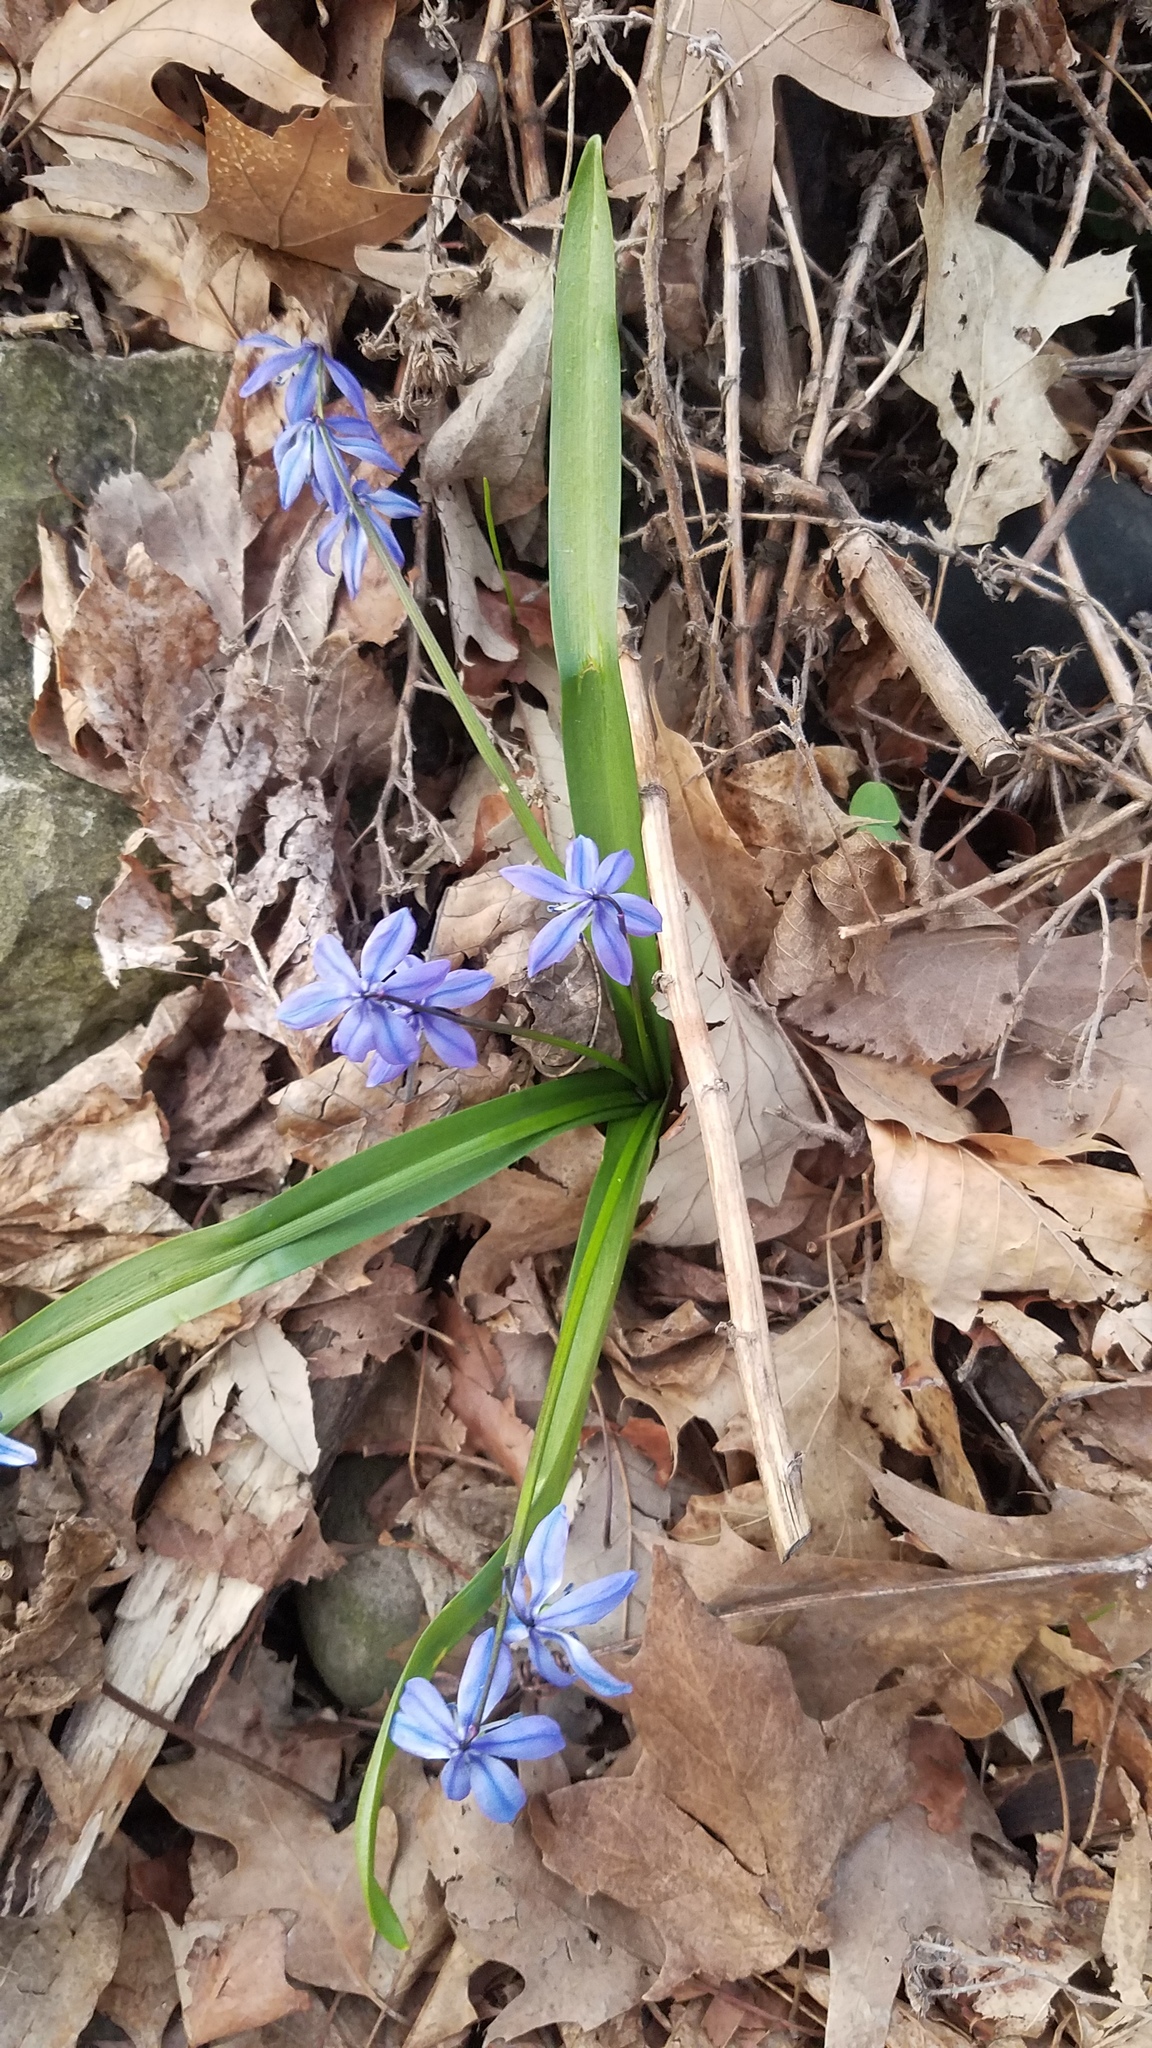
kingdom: Plantae
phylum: Tracheophyta
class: Liliopsida
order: Asparagales
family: Asparagaceae
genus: Scilla
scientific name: Scilla siberica
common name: Siberian squill
